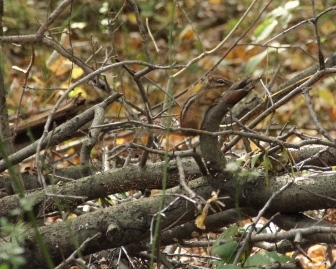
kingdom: Animalia
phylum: Chordata
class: Mammalia
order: Rodentia
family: Sciuridae
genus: Tamias
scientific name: Tamias striatus
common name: Eastern chipmunk
